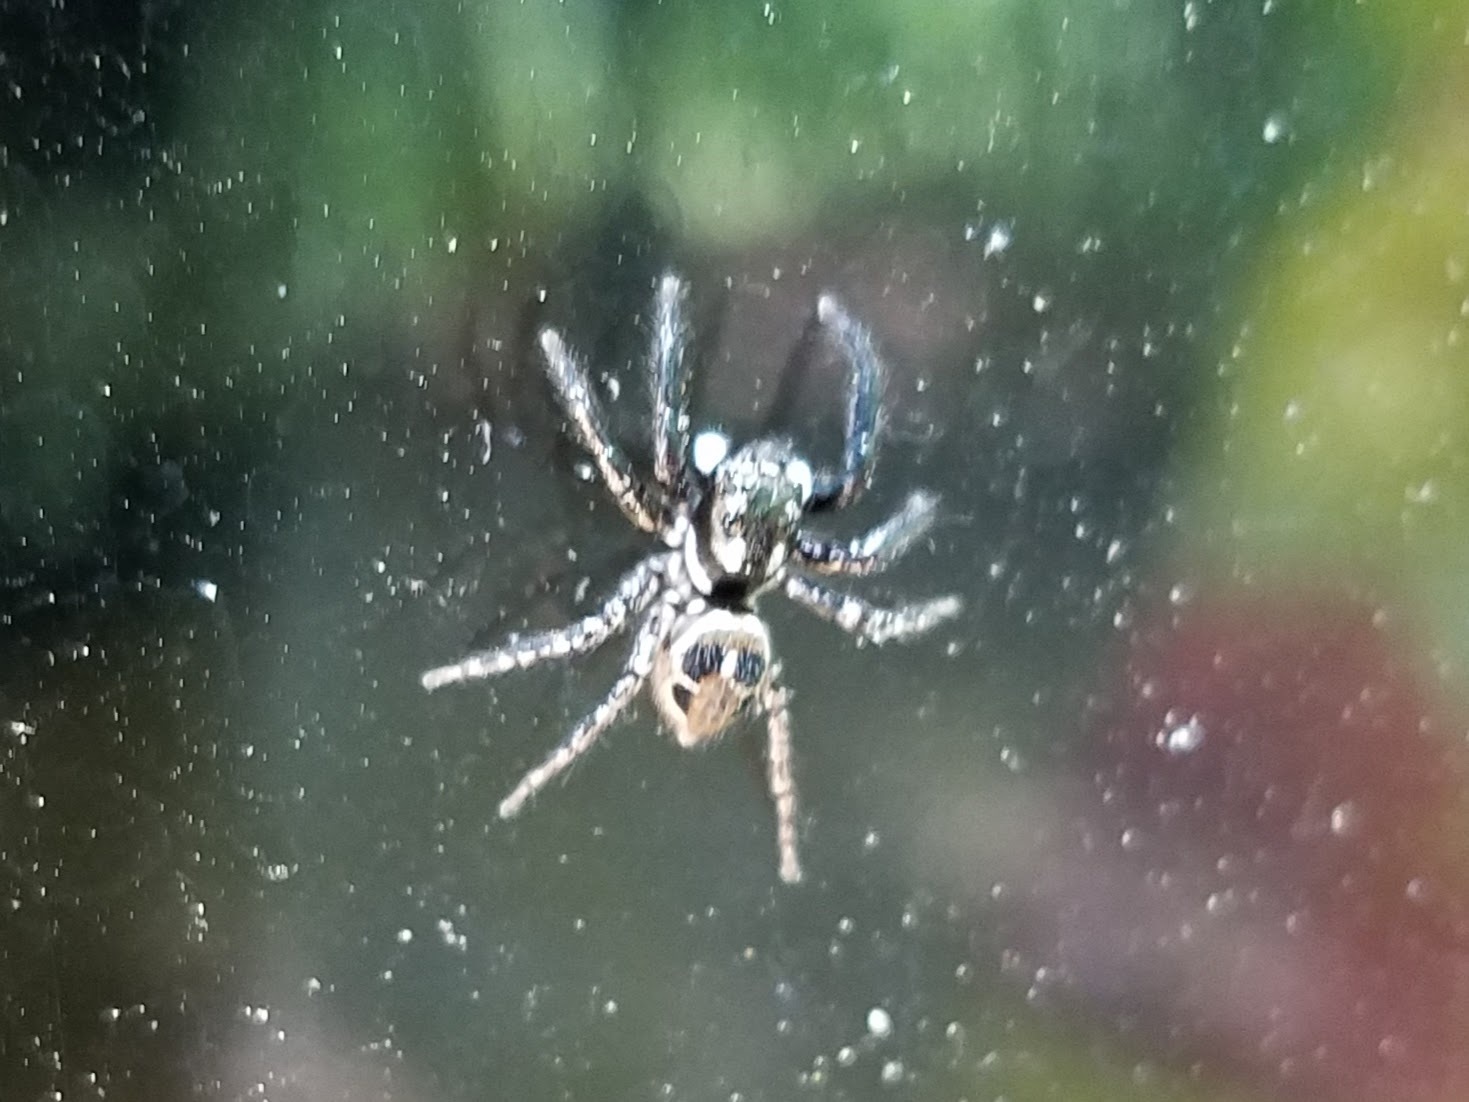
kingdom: Animalia
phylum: Arthropoda
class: Arachnida
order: Araneae
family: Salticidae
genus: Anasaitis
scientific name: Anasaitis canosa
